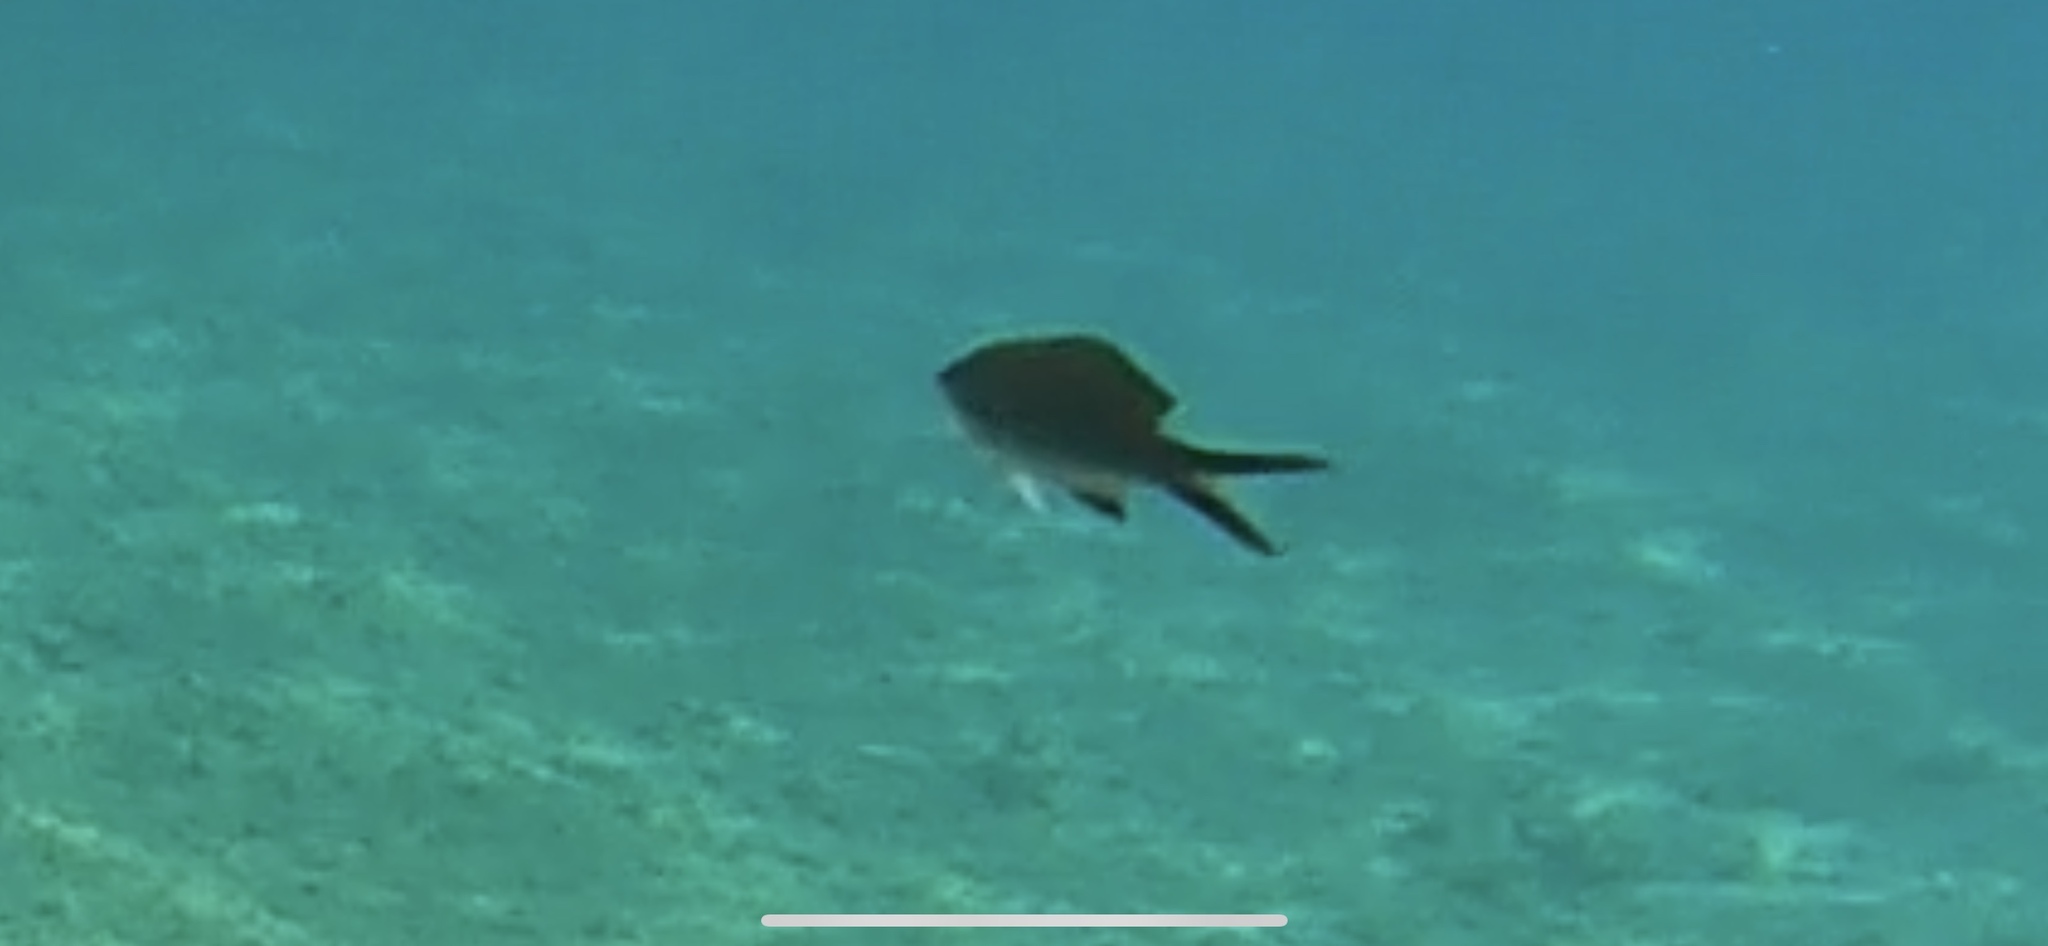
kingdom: Animalia
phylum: Chordata
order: Perciformes
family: Pomacentridae
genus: Chromis
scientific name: Chromis chromis
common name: Damselfish
